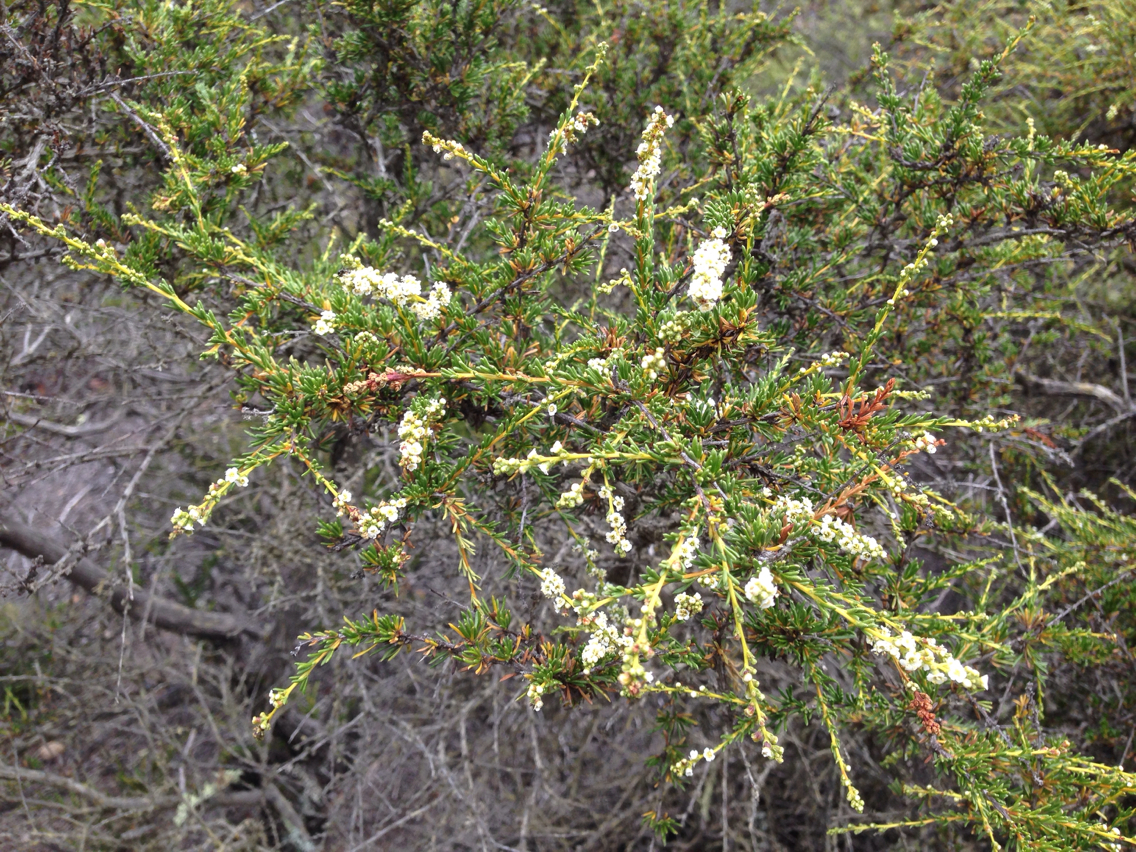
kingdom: Plantae
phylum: Tracheophyta
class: Magnoliopsida
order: Rosales
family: Rosaceae
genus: Adenostoma
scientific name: Adenostoma fasciculatum
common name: Chamise
